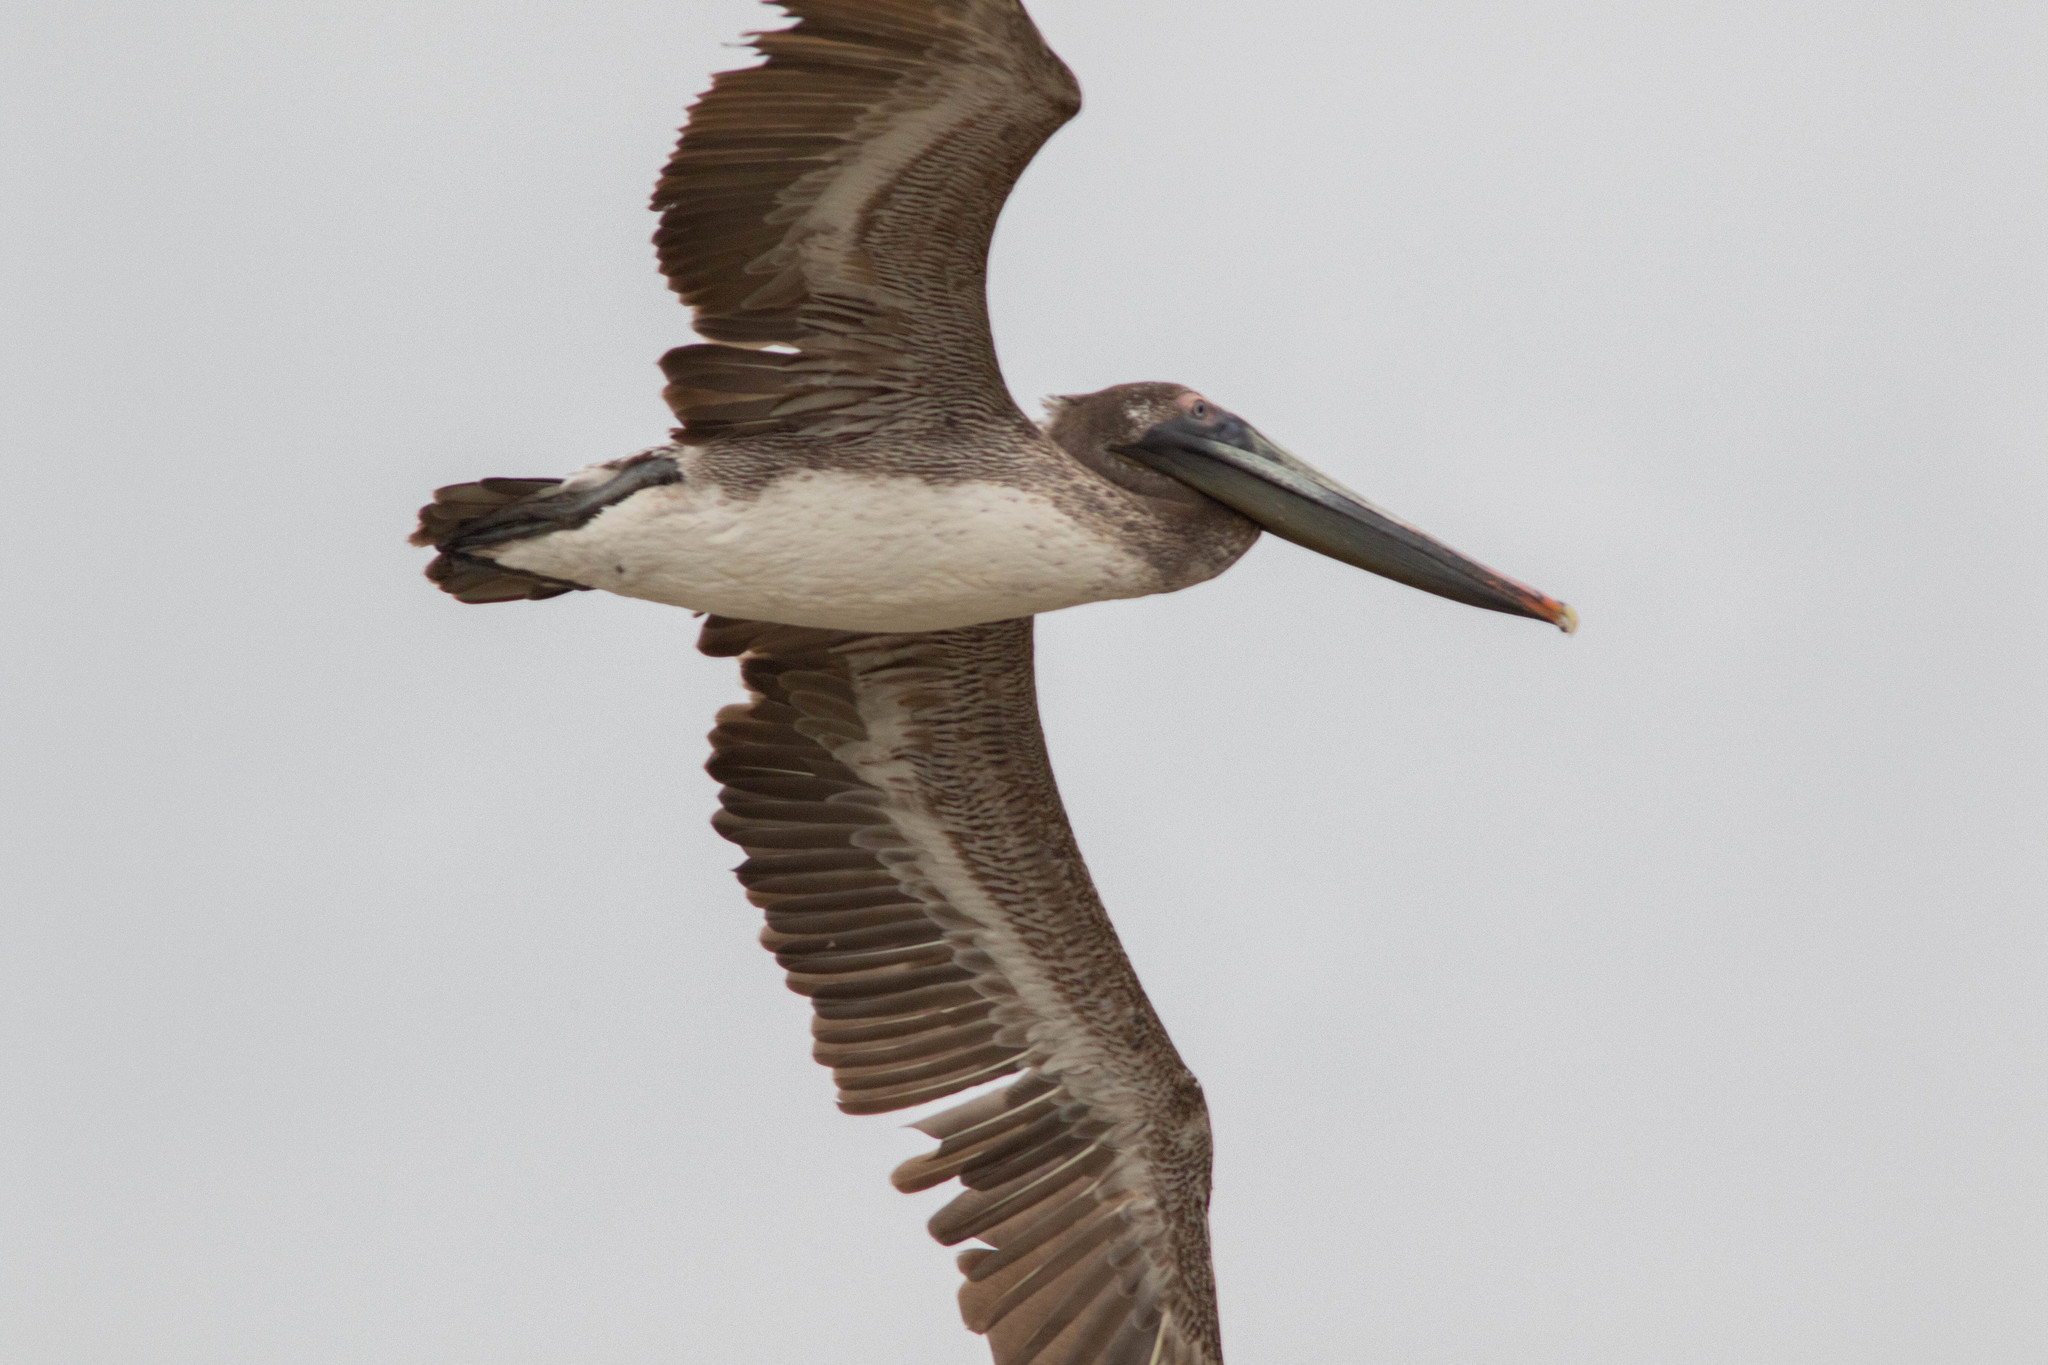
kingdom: Animalia
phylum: Chordata
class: Aves
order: Pelecaniformes
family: Pelecanidae
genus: Pelecanus
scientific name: Pelecanus occidentalis
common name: Brown pelican
